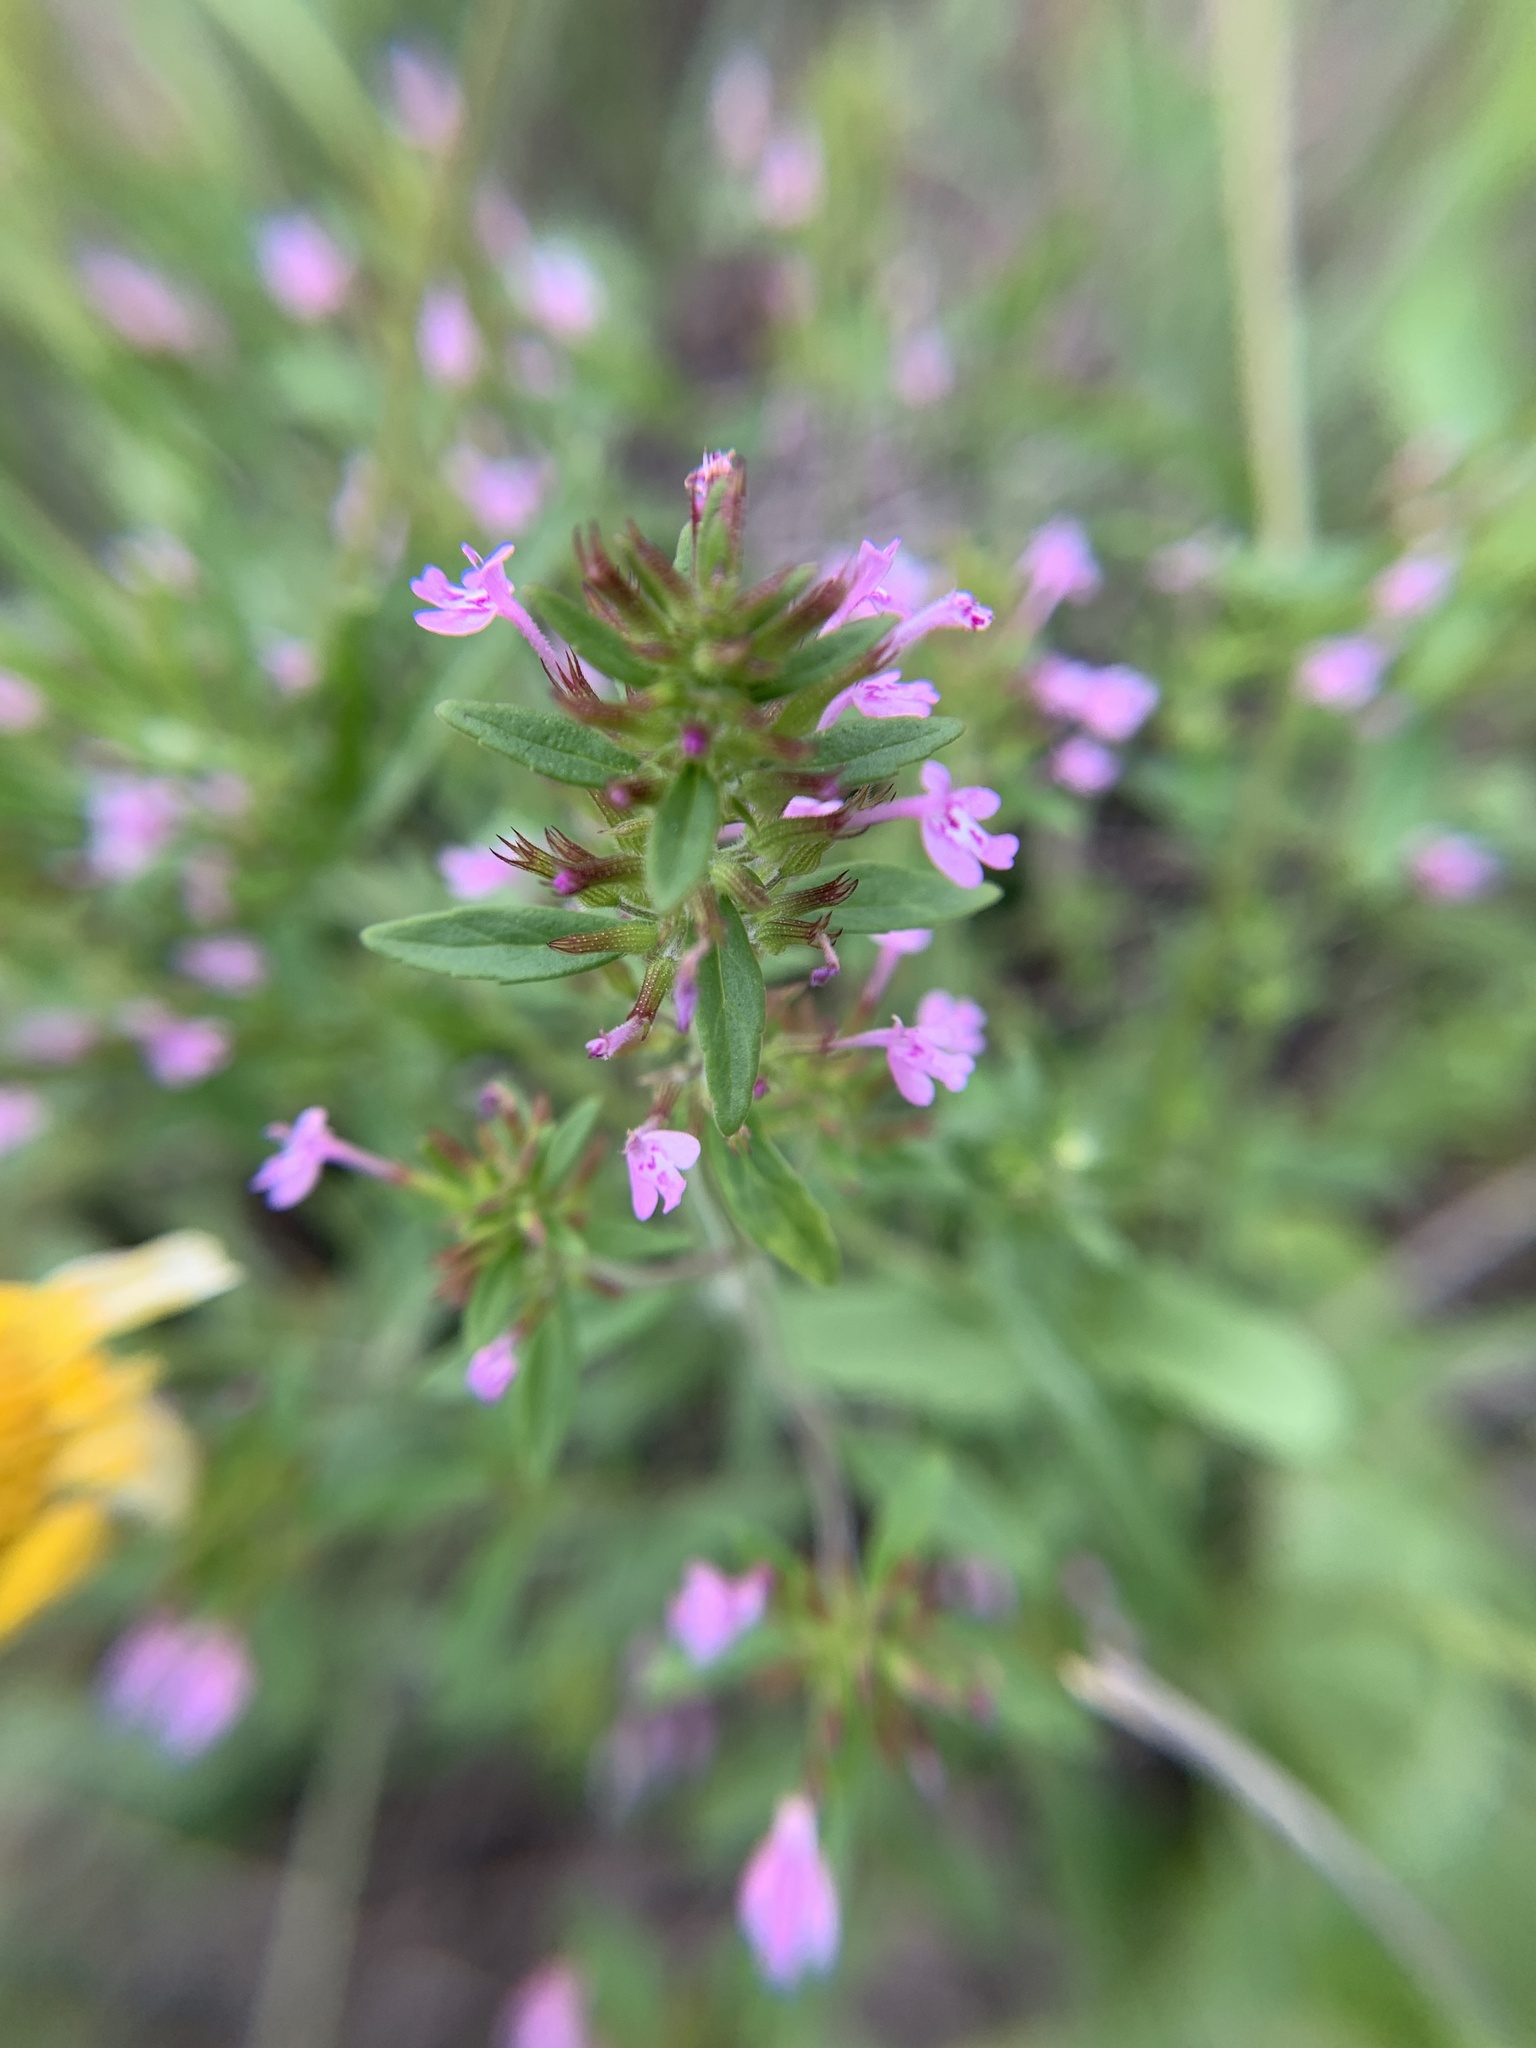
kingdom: Plantae
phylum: Tracheophyta
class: Magnoliopsida
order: Lamiales
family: Lamiaceae
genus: Hedeoma
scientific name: Hedeoma acinoides
